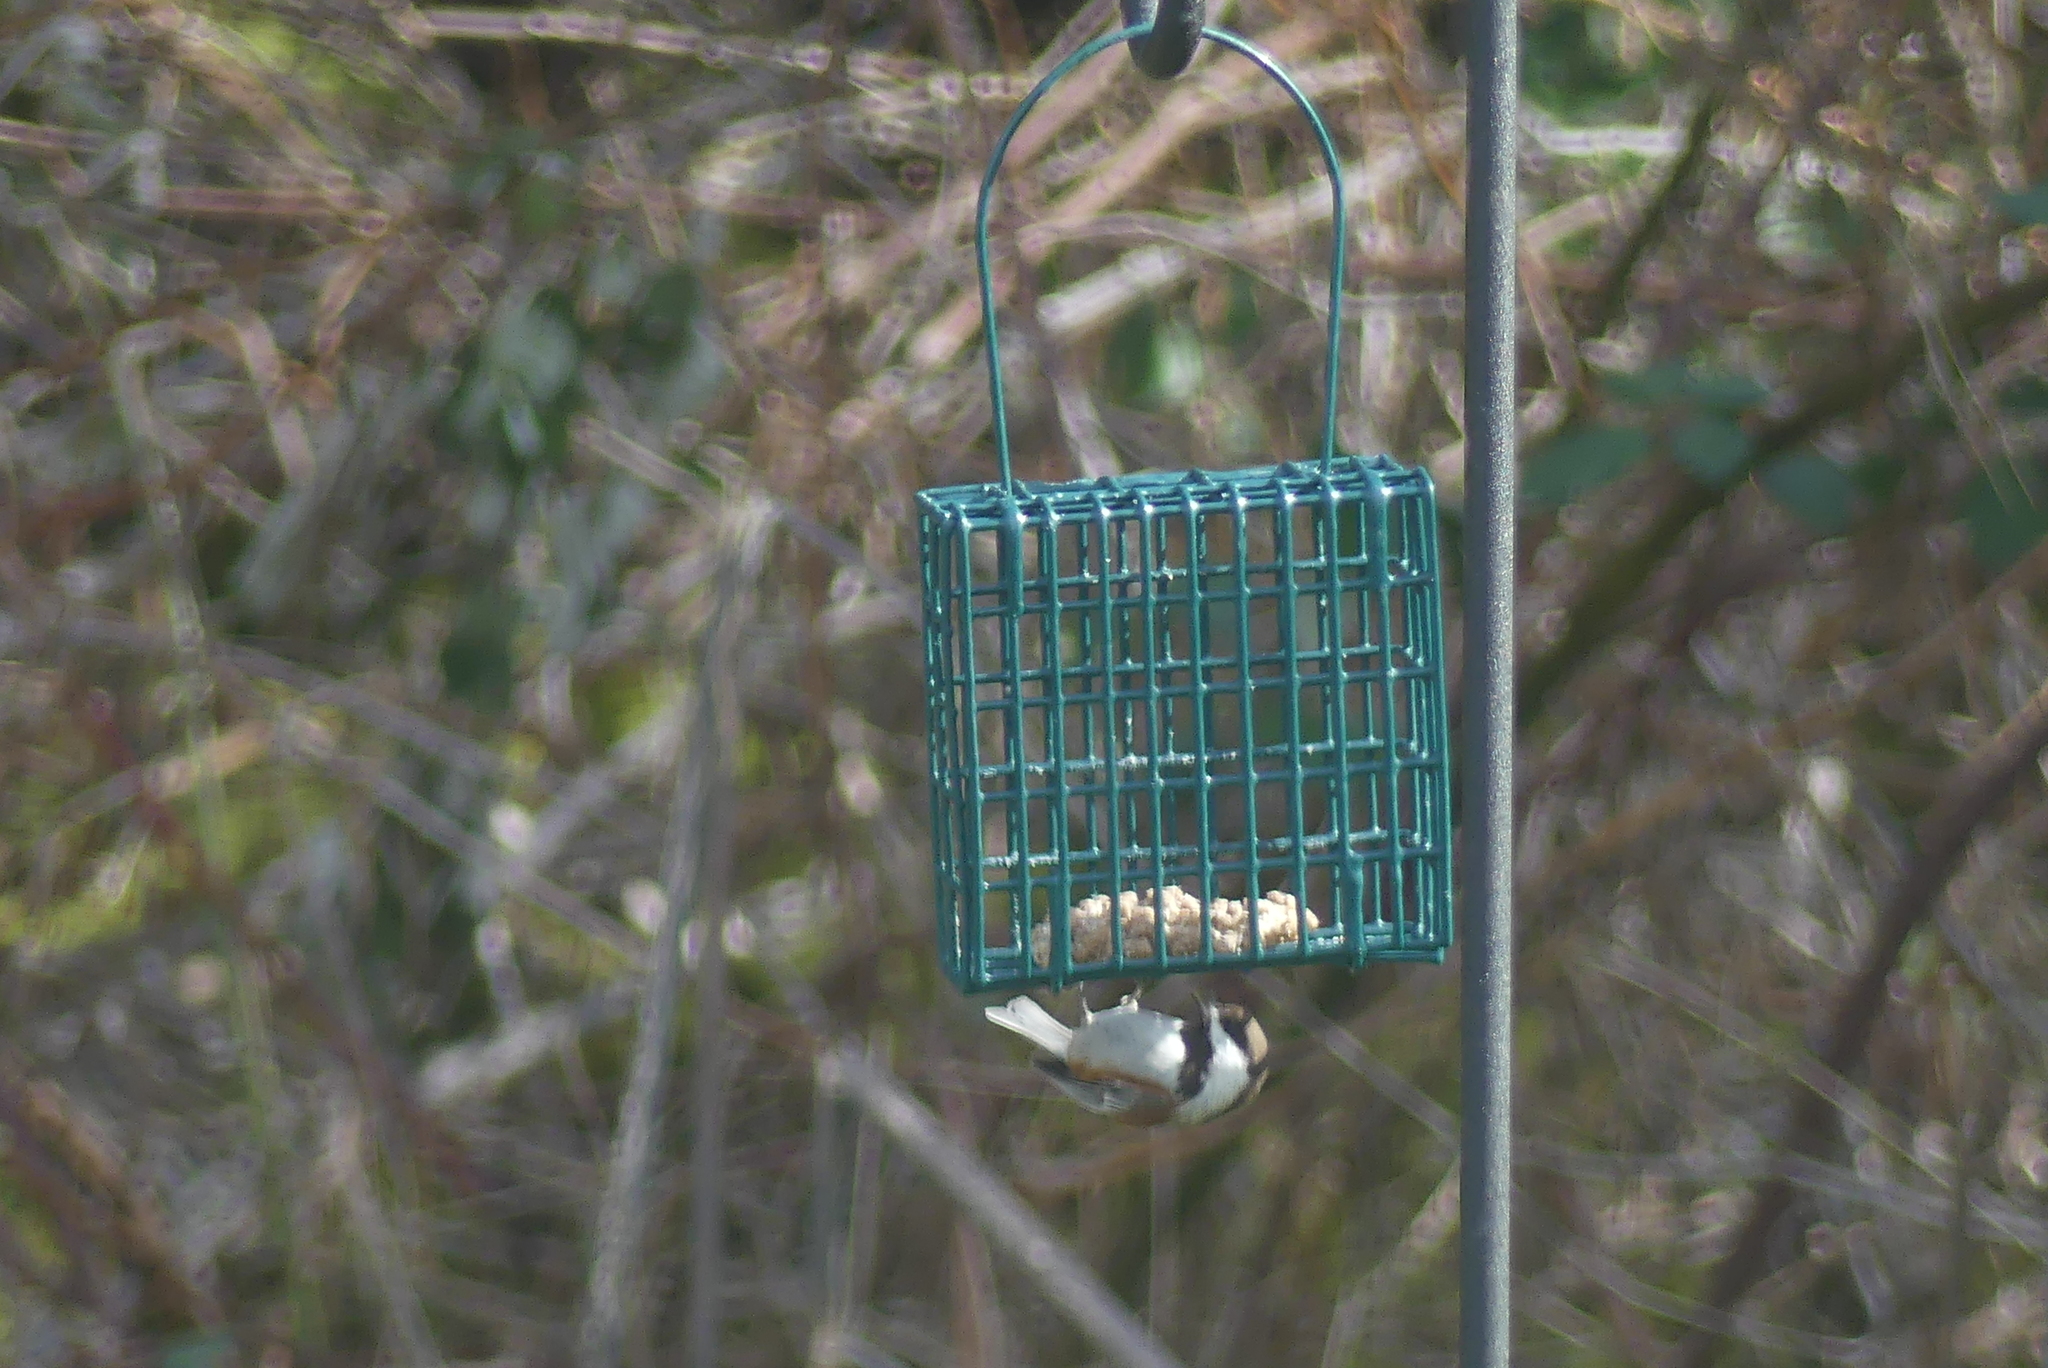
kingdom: Animalia
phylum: Chordata
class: Aves
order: Passeriformes
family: Paridae
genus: Poecile
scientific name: Poecile rufescens
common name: Chestnut-backed chickadee
